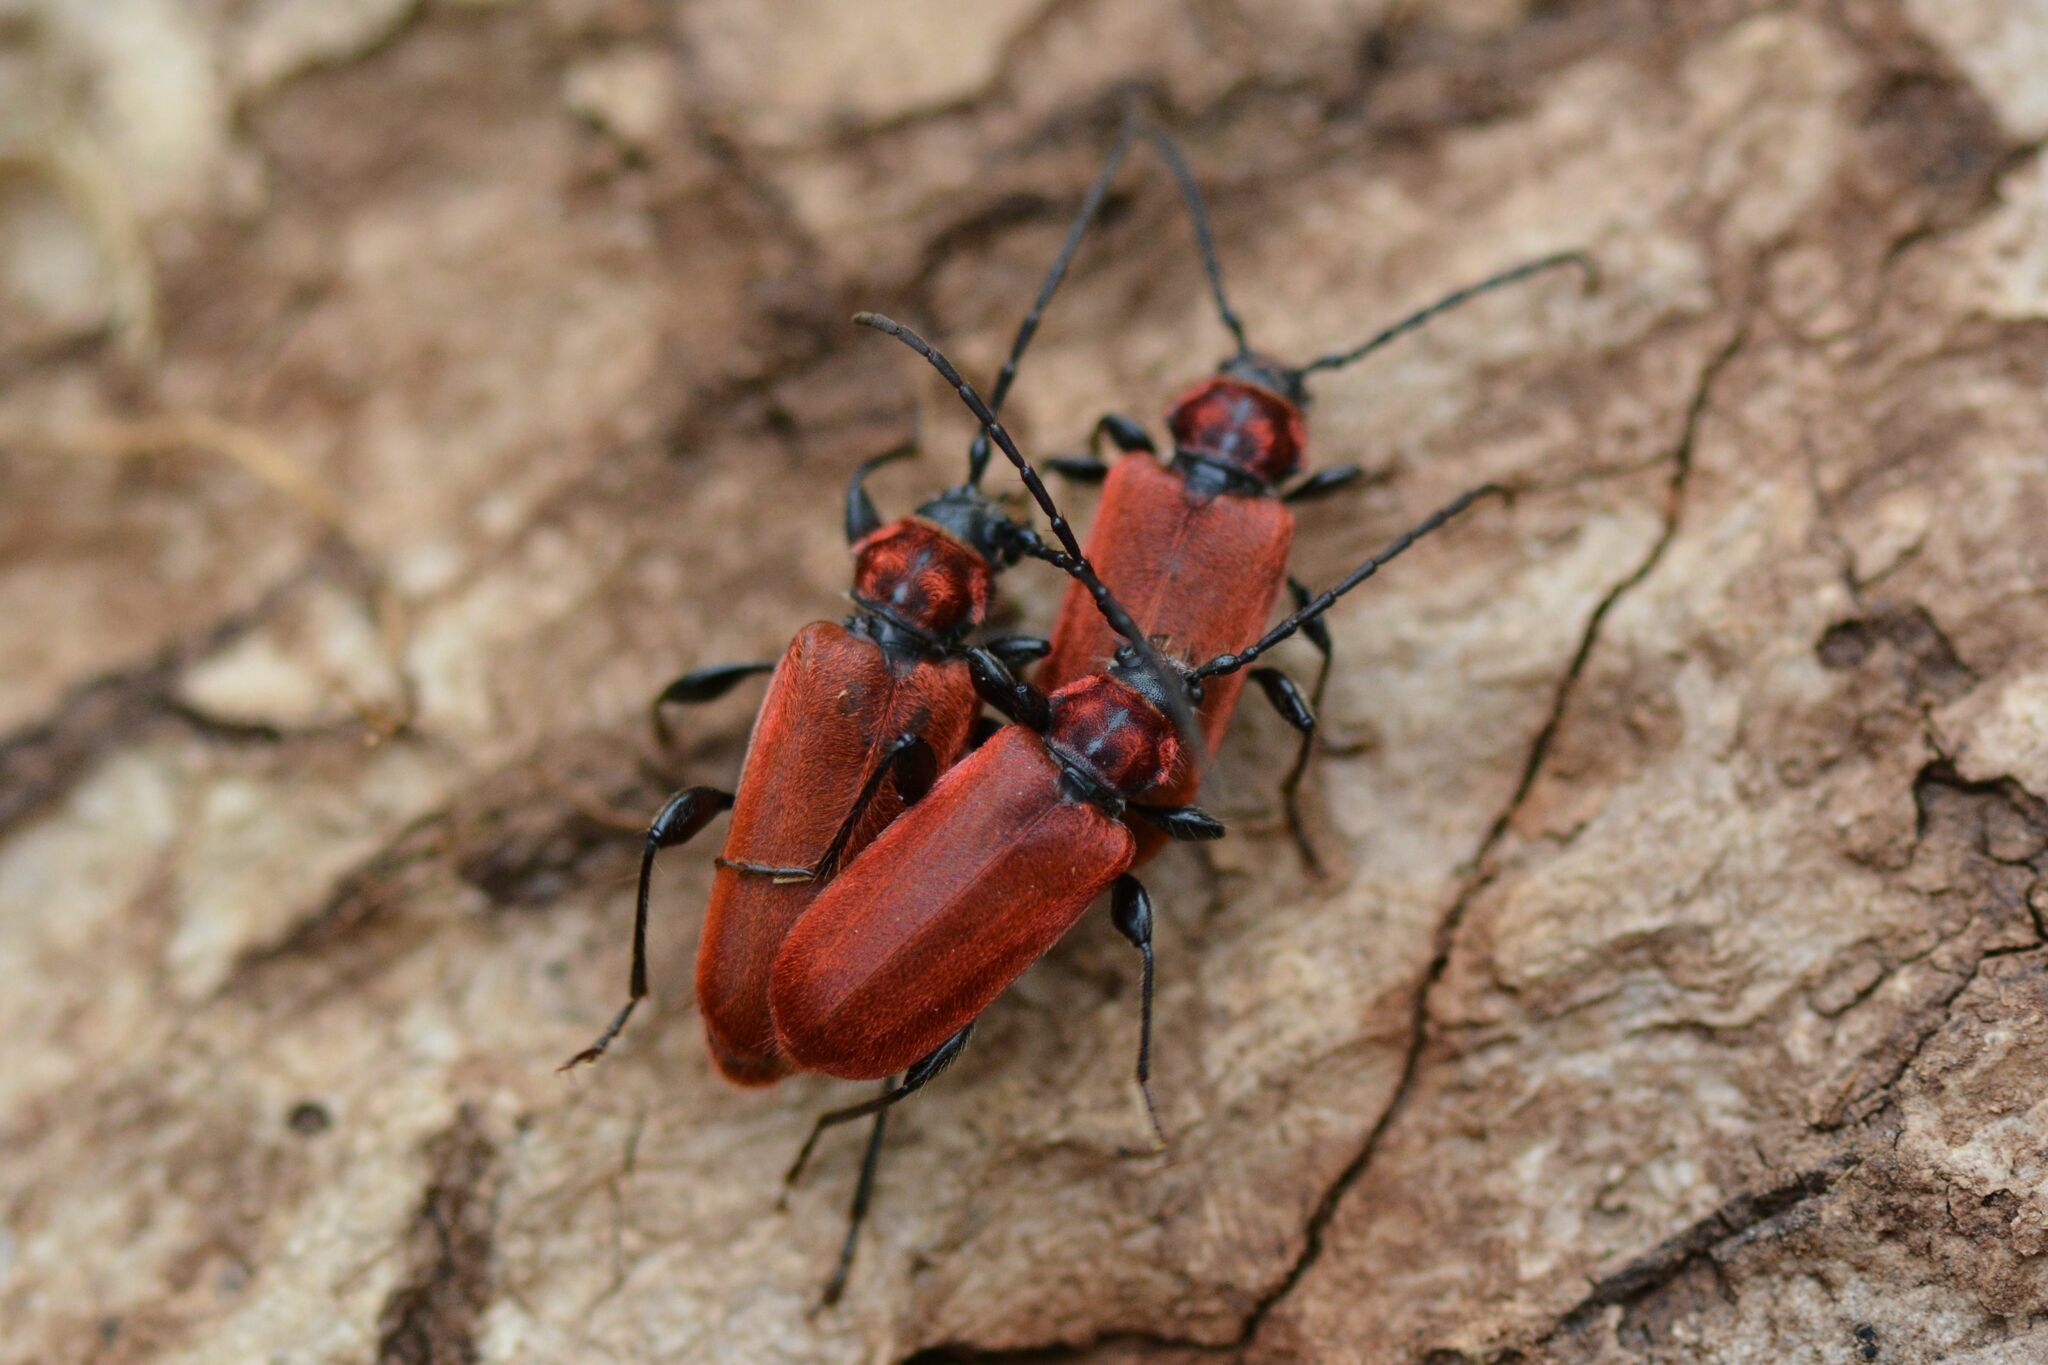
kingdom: Animalia
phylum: Arthropoda
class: Insecta
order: Coleoptera
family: Cerambycidae
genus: Pyrrhidium
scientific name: Pyrrhidium sanguineum
